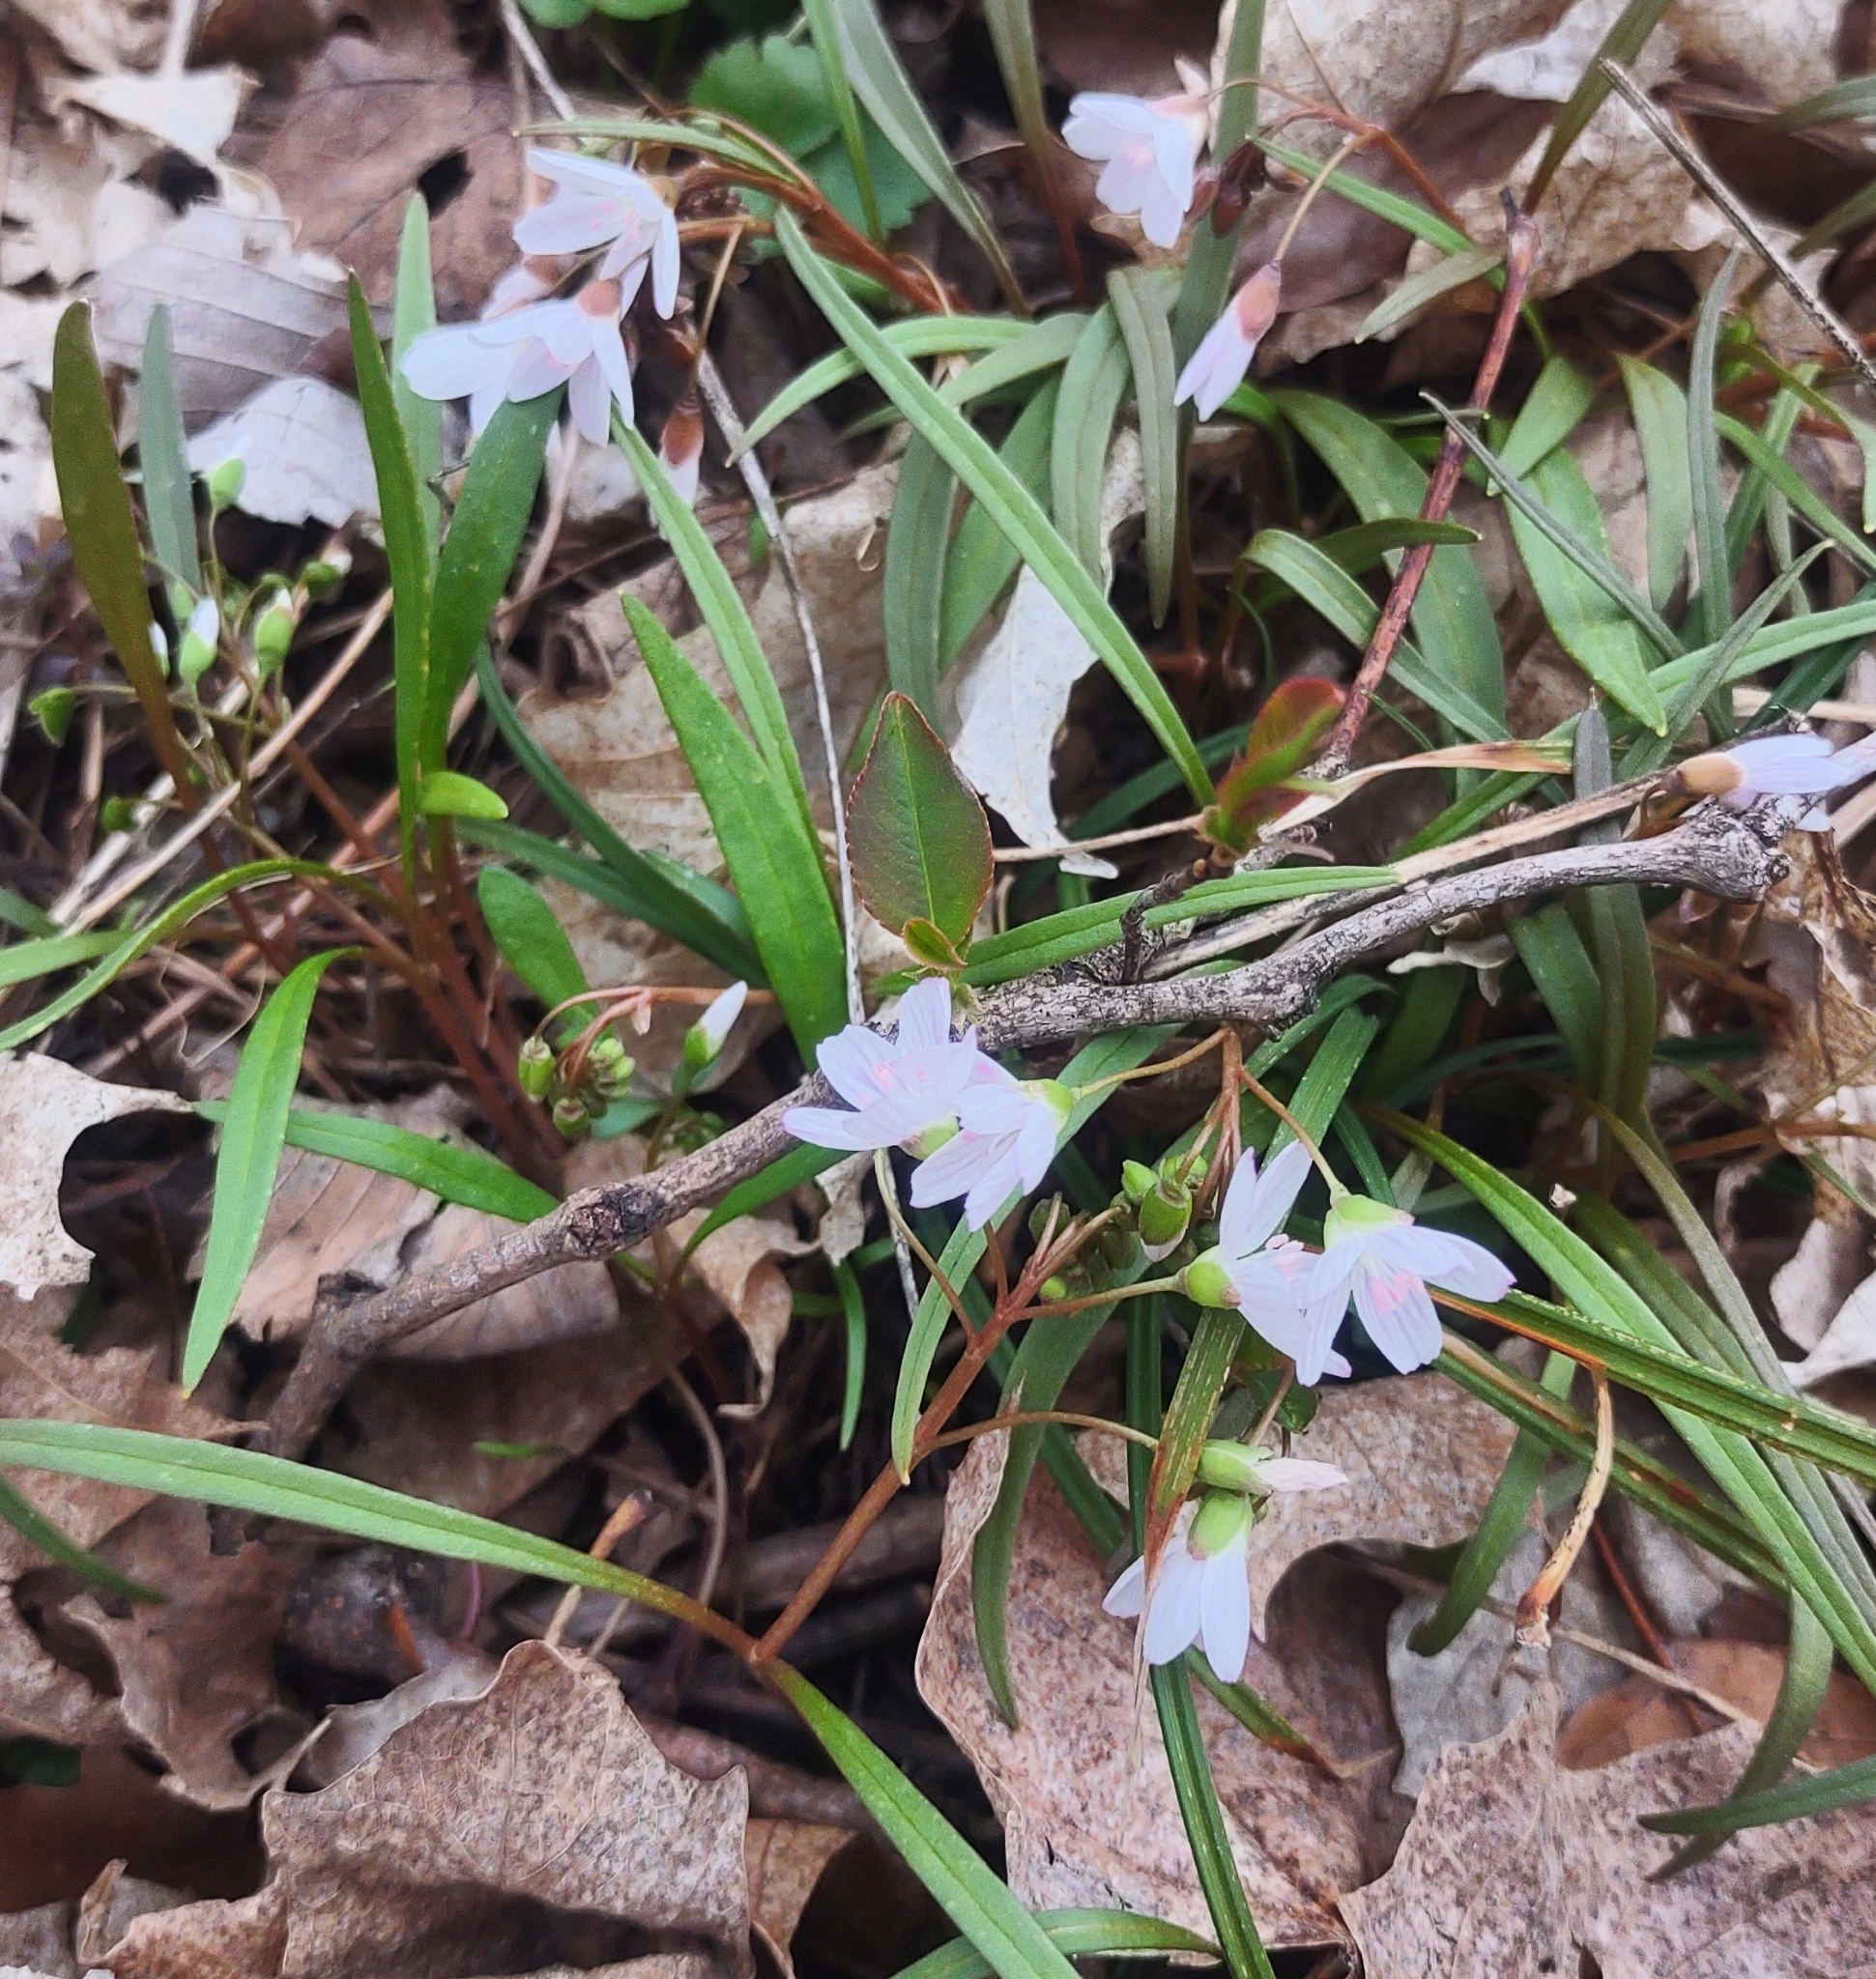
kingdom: Plantae
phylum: Tracheophyta
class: Magnoliopsida
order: Caryophyllales
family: Montiaceae
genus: Claytonia
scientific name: Claytonia virginica
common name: Virginia springbeauty
